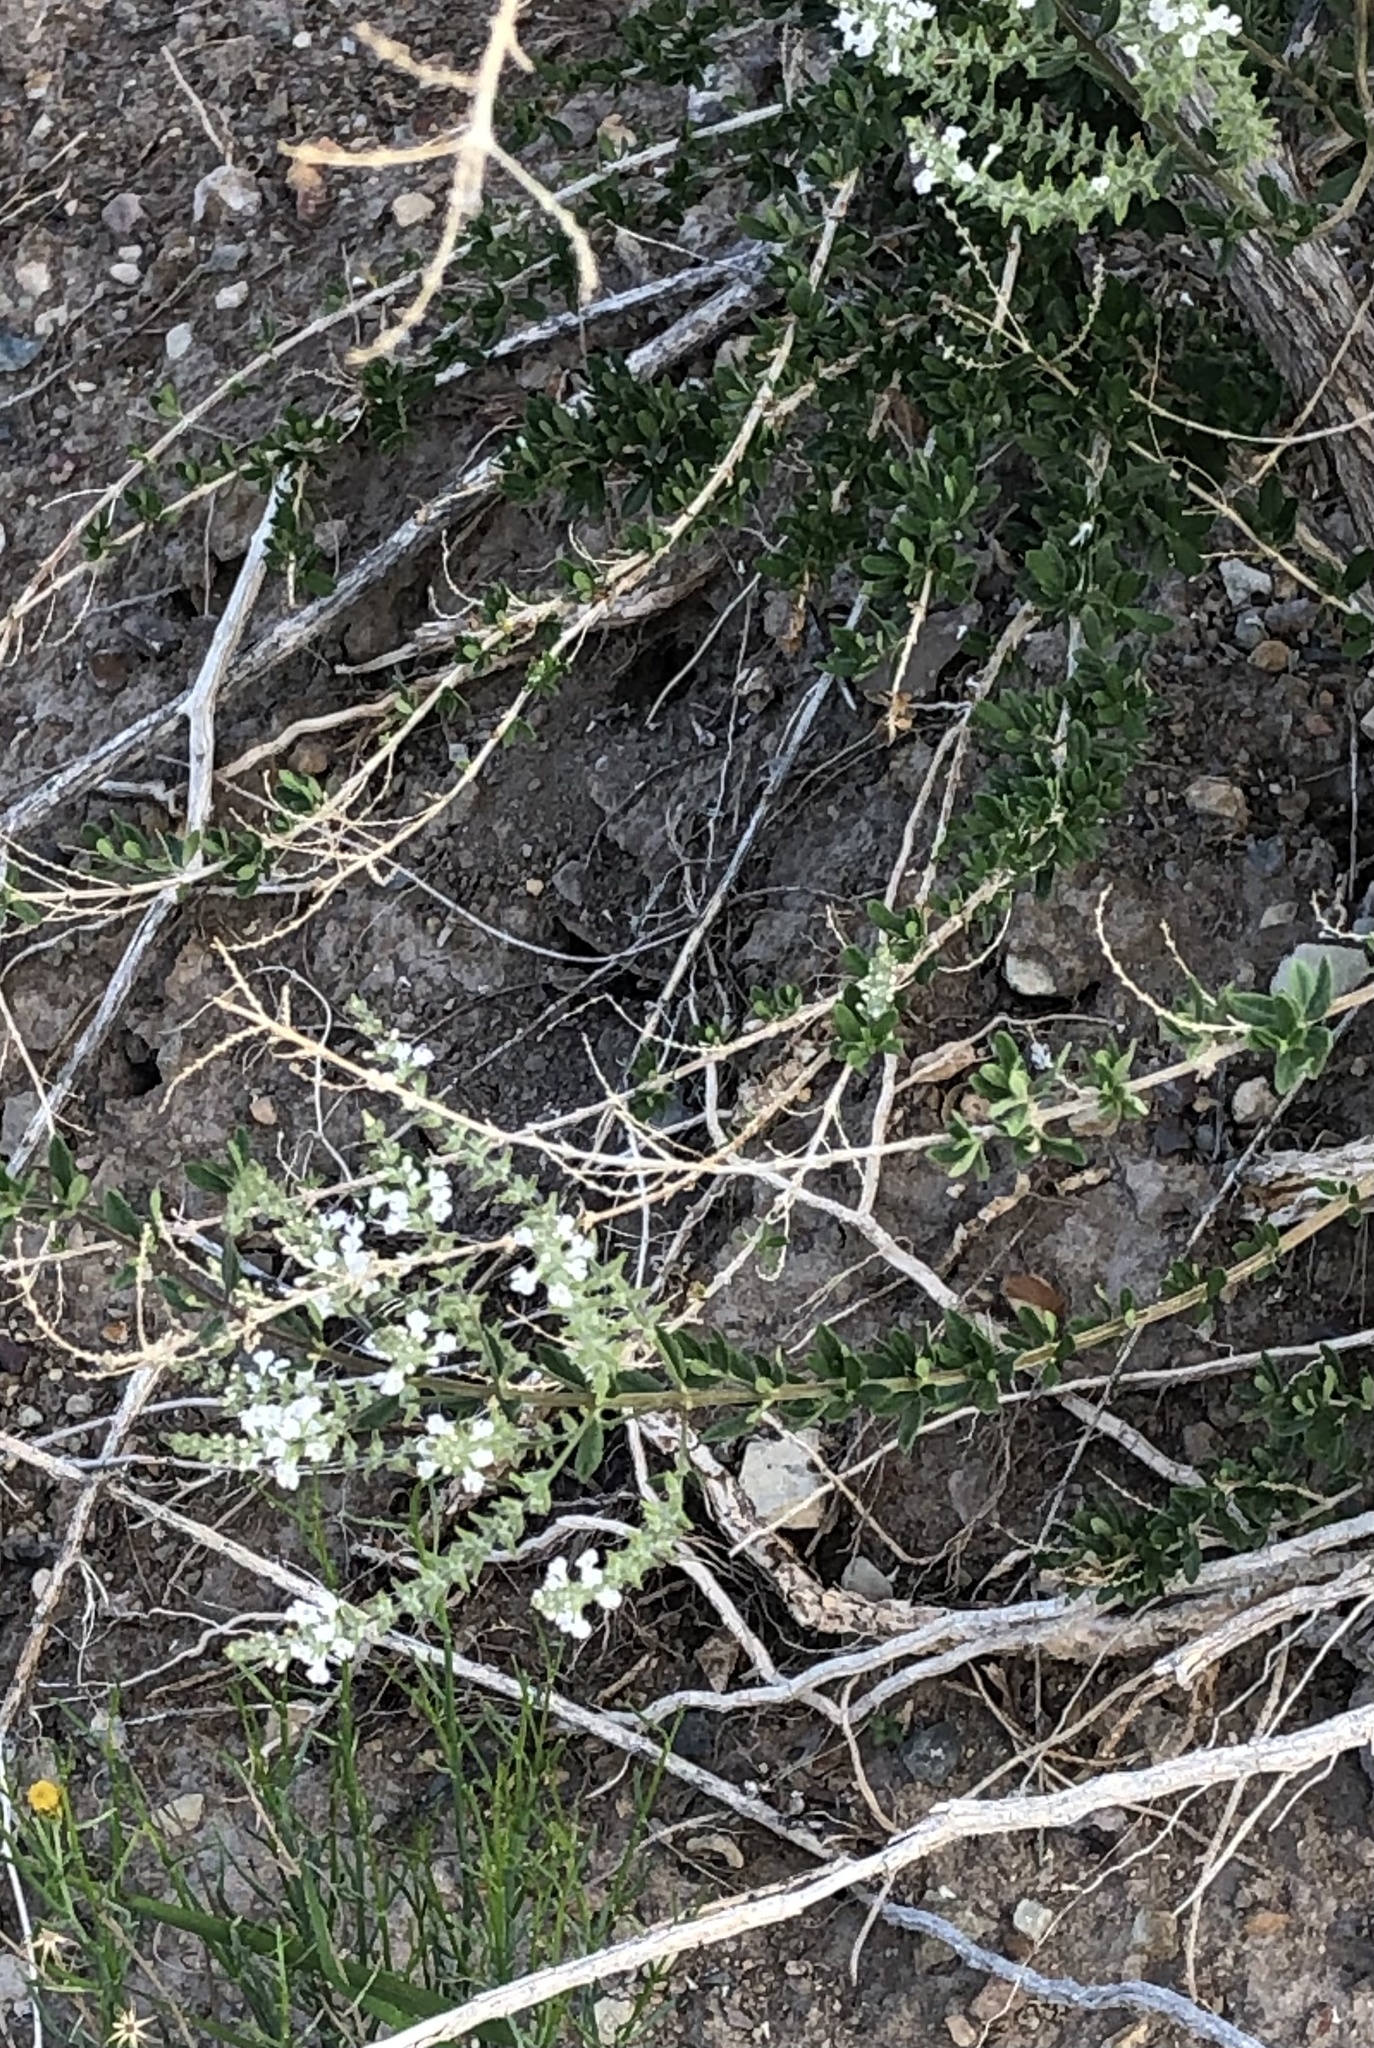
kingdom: Plantae
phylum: Tracheophyta
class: Magnoliopsida
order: Lamiales
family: Verbenaceae
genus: Aloysia
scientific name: Aloysia gratissima
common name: Common bee-brush
